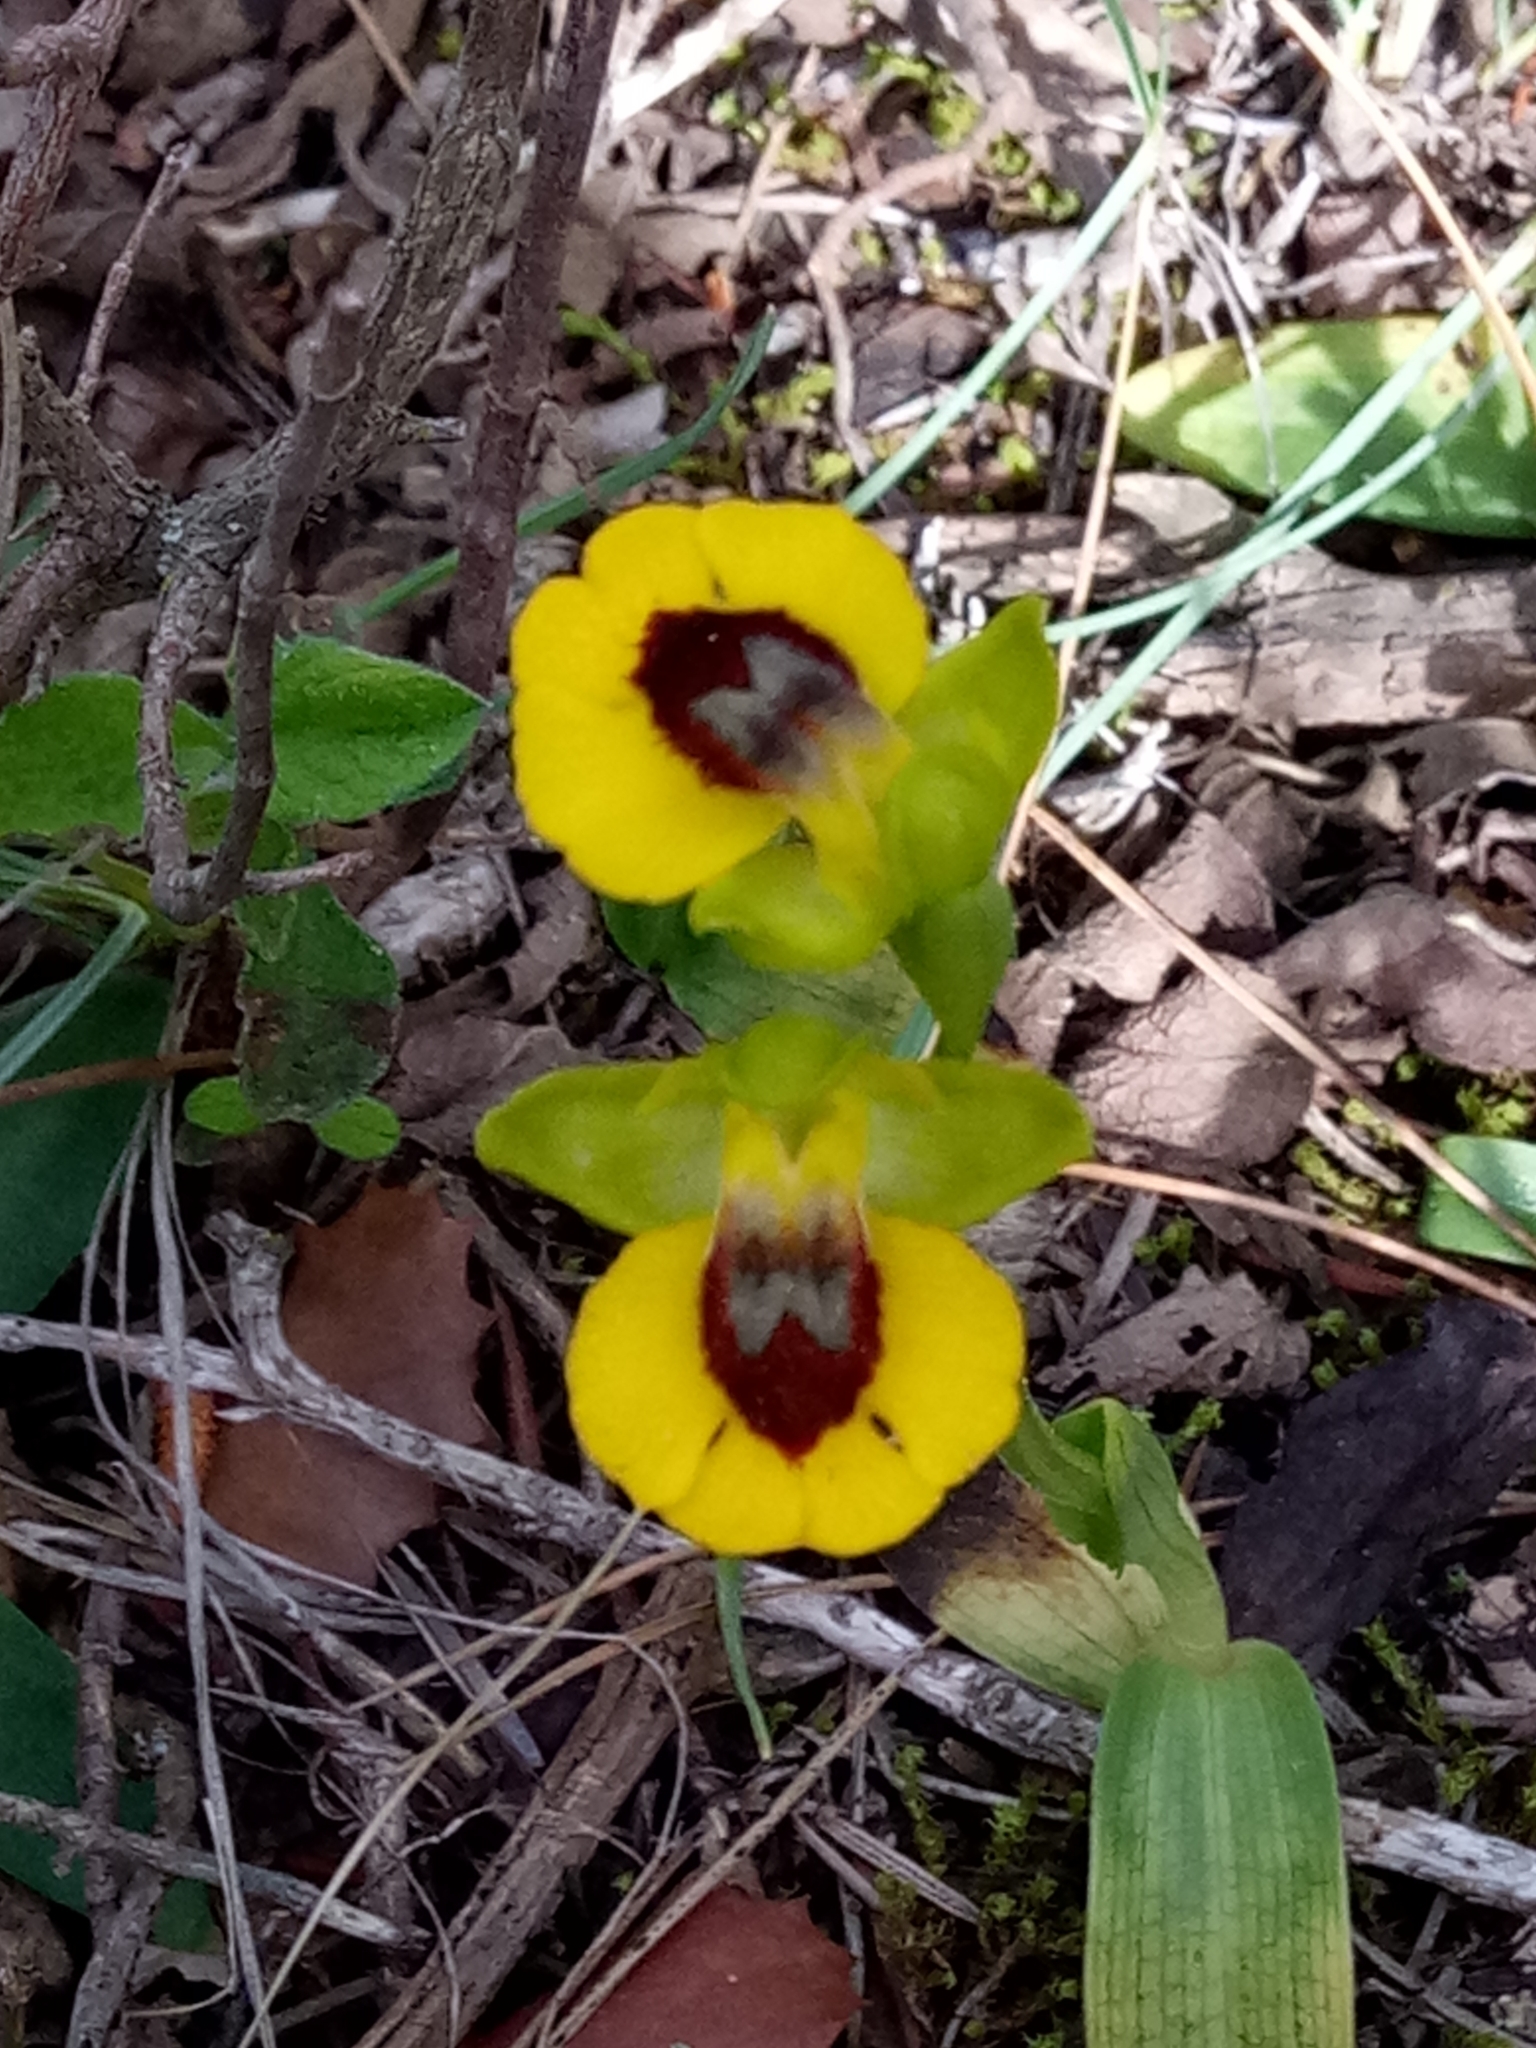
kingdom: Plantae
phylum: Tracheophyta
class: Liliopsida
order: Asparagales
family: Orchidaceae
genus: Ophrys
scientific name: Ophrys lutea
